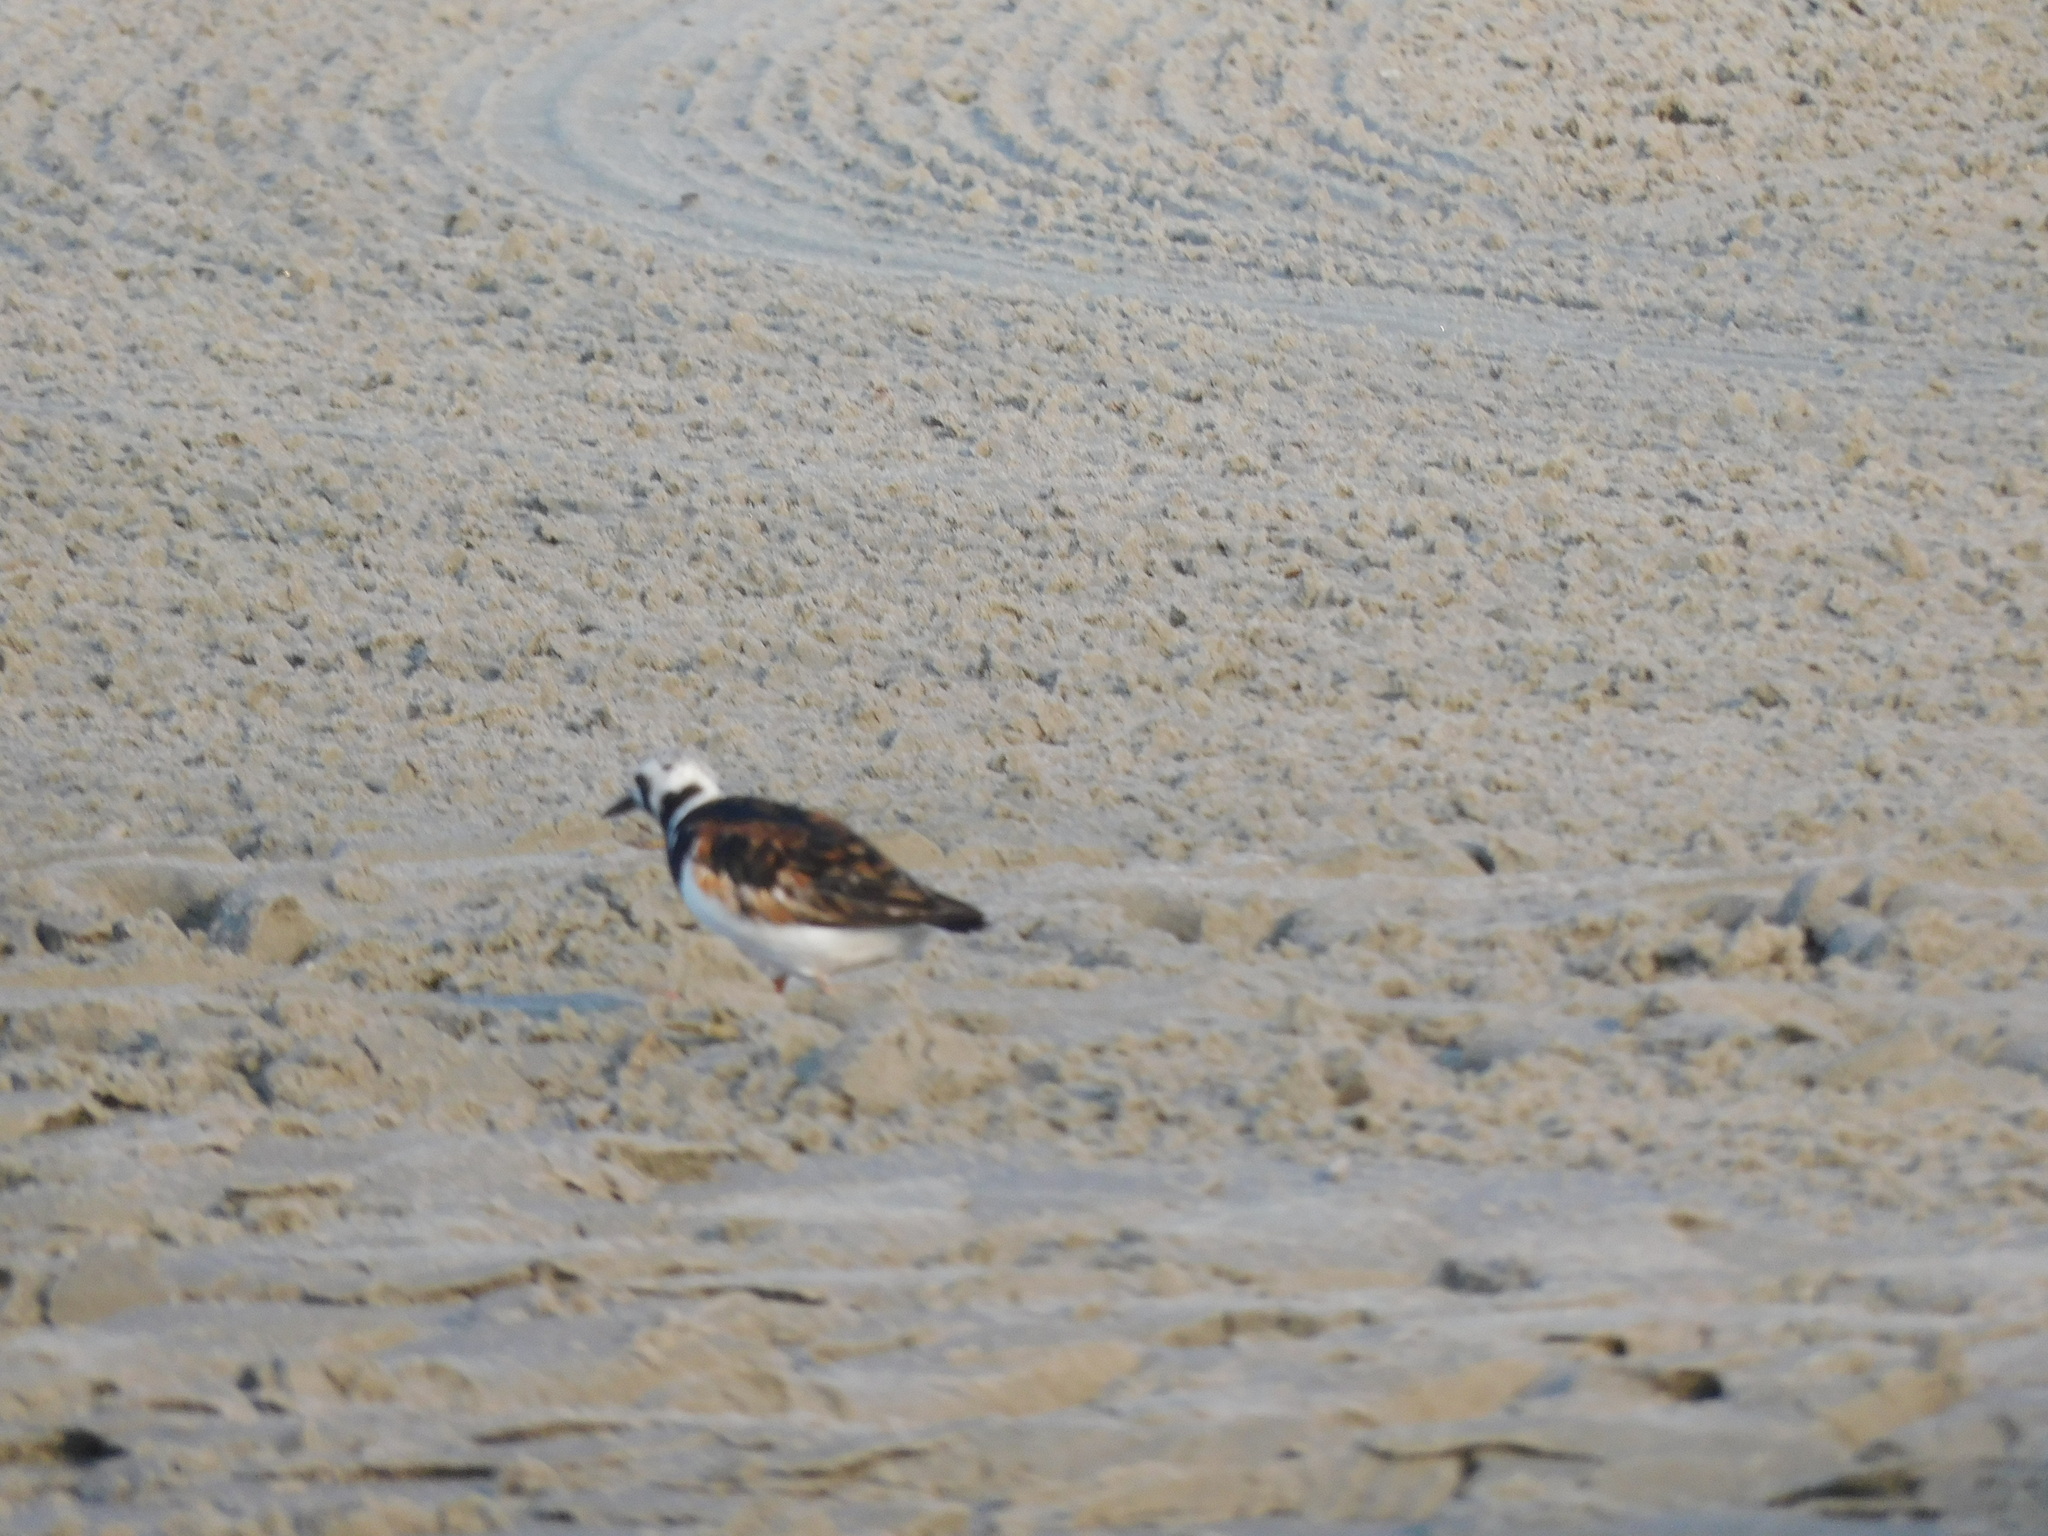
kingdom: Animalia
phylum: Chordata
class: Aves
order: Charadriiformes
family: Scolopacidae
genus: Arenaria
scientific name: Arenaria interpres
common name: Ruddy turnstone
